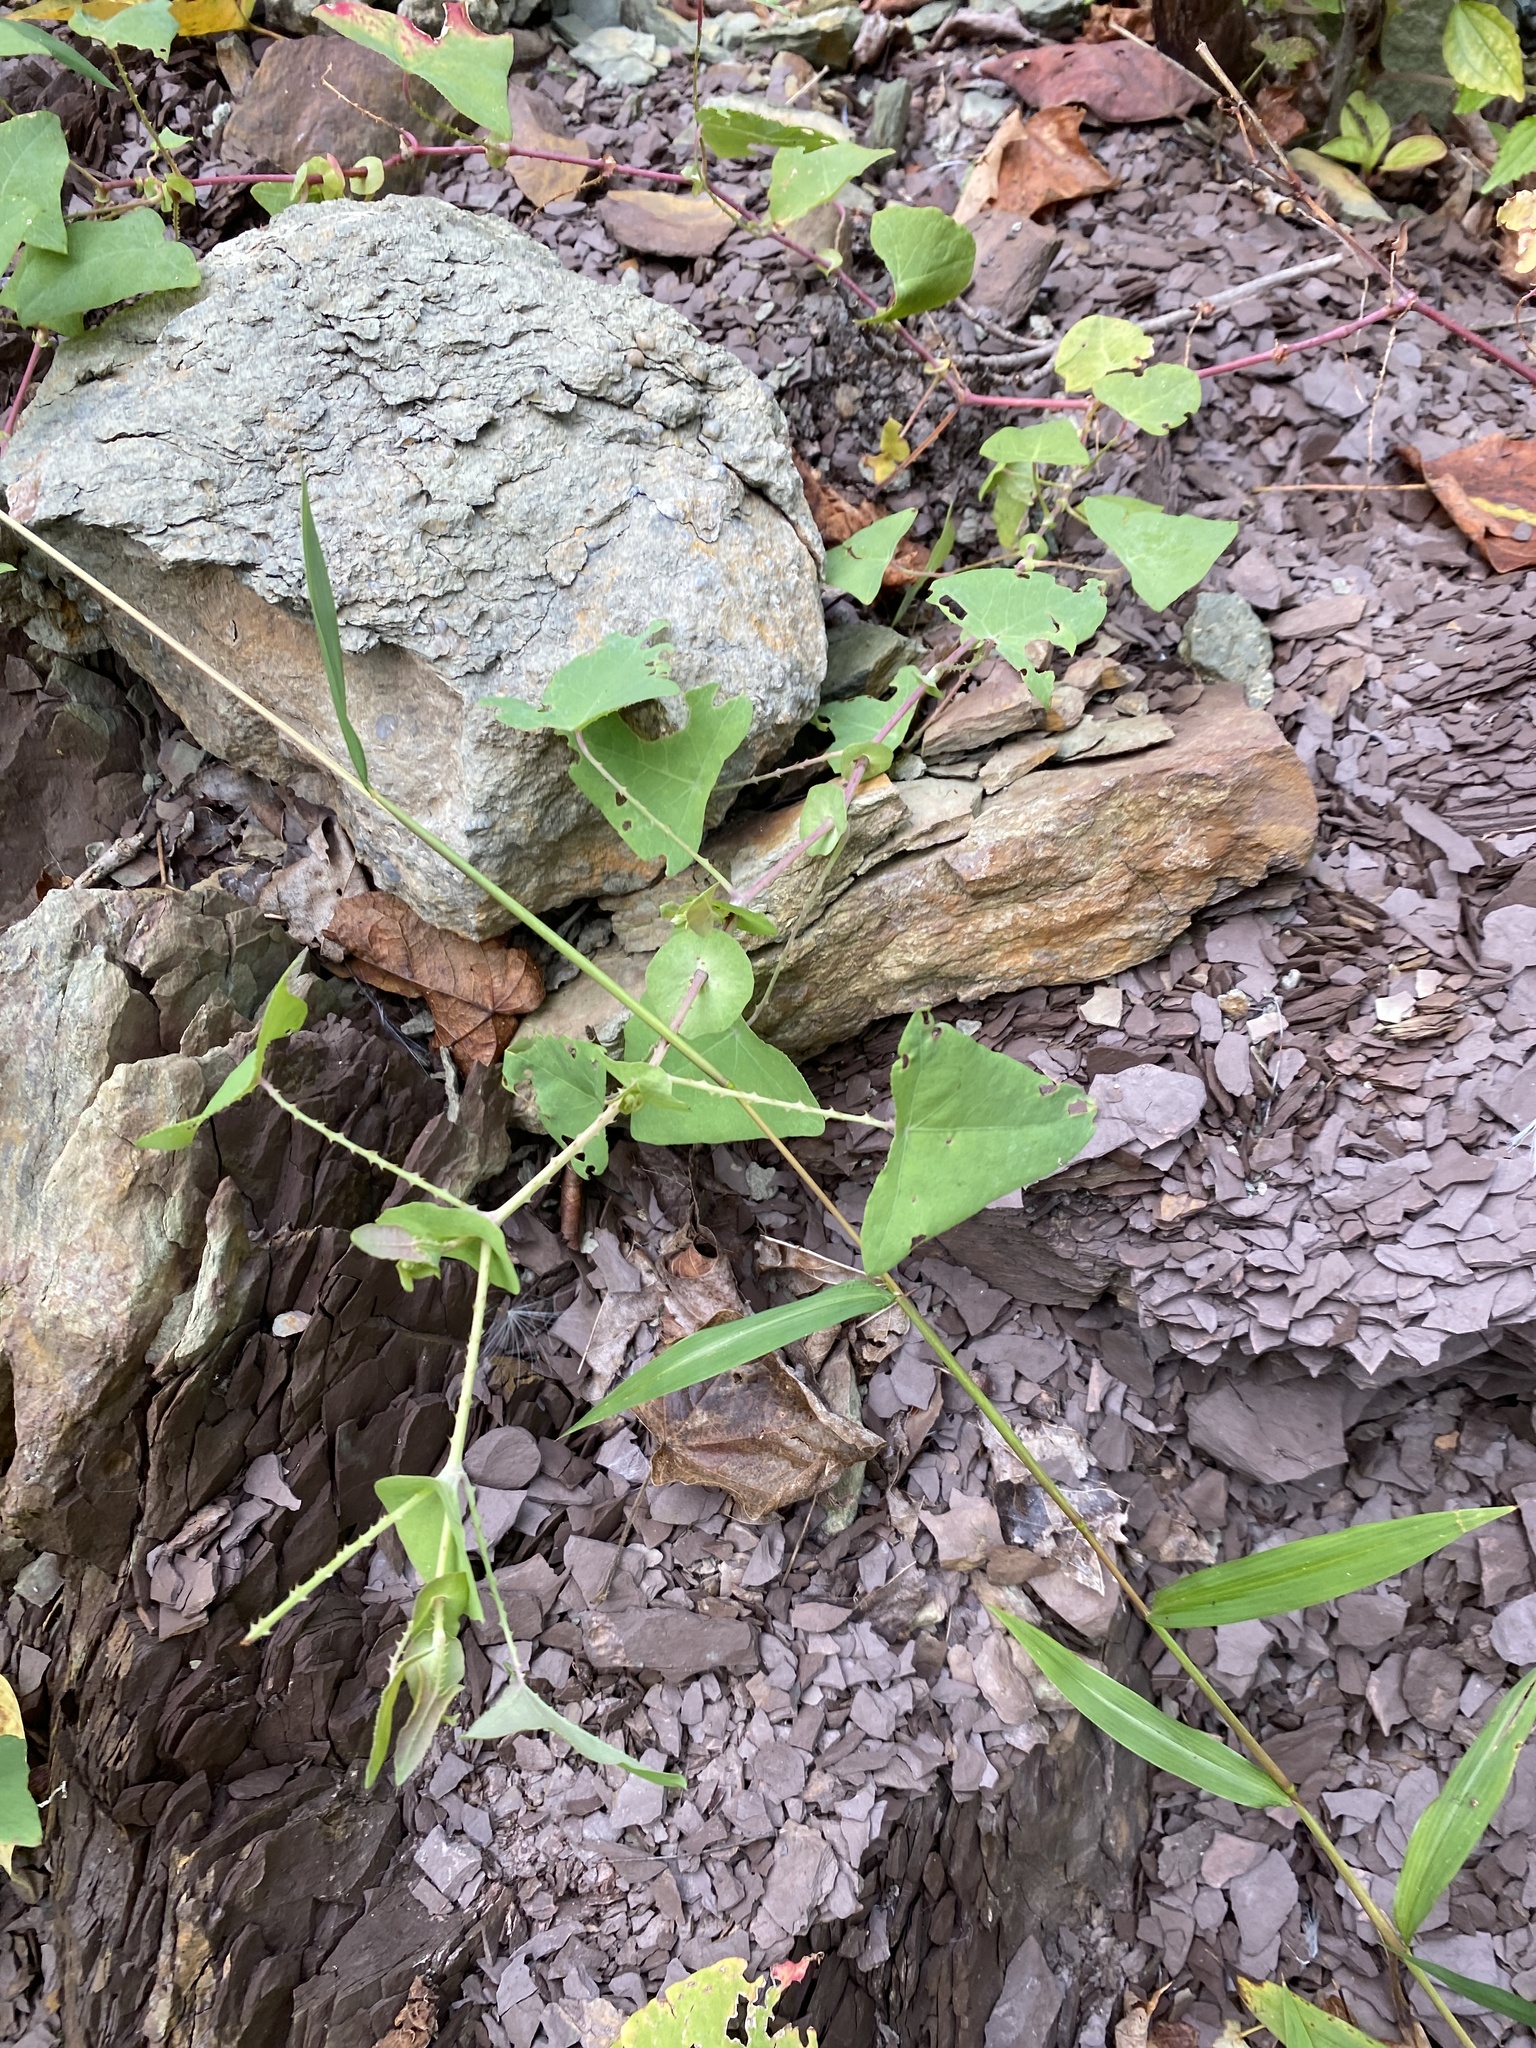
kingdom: Plantae
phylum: Tracheophyta
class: Magnoliopsida
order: Caryophyllales
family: Polygonaceae
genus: Persicaria
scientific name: Persicaria perfoliata
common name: Asiatic tearthumb
